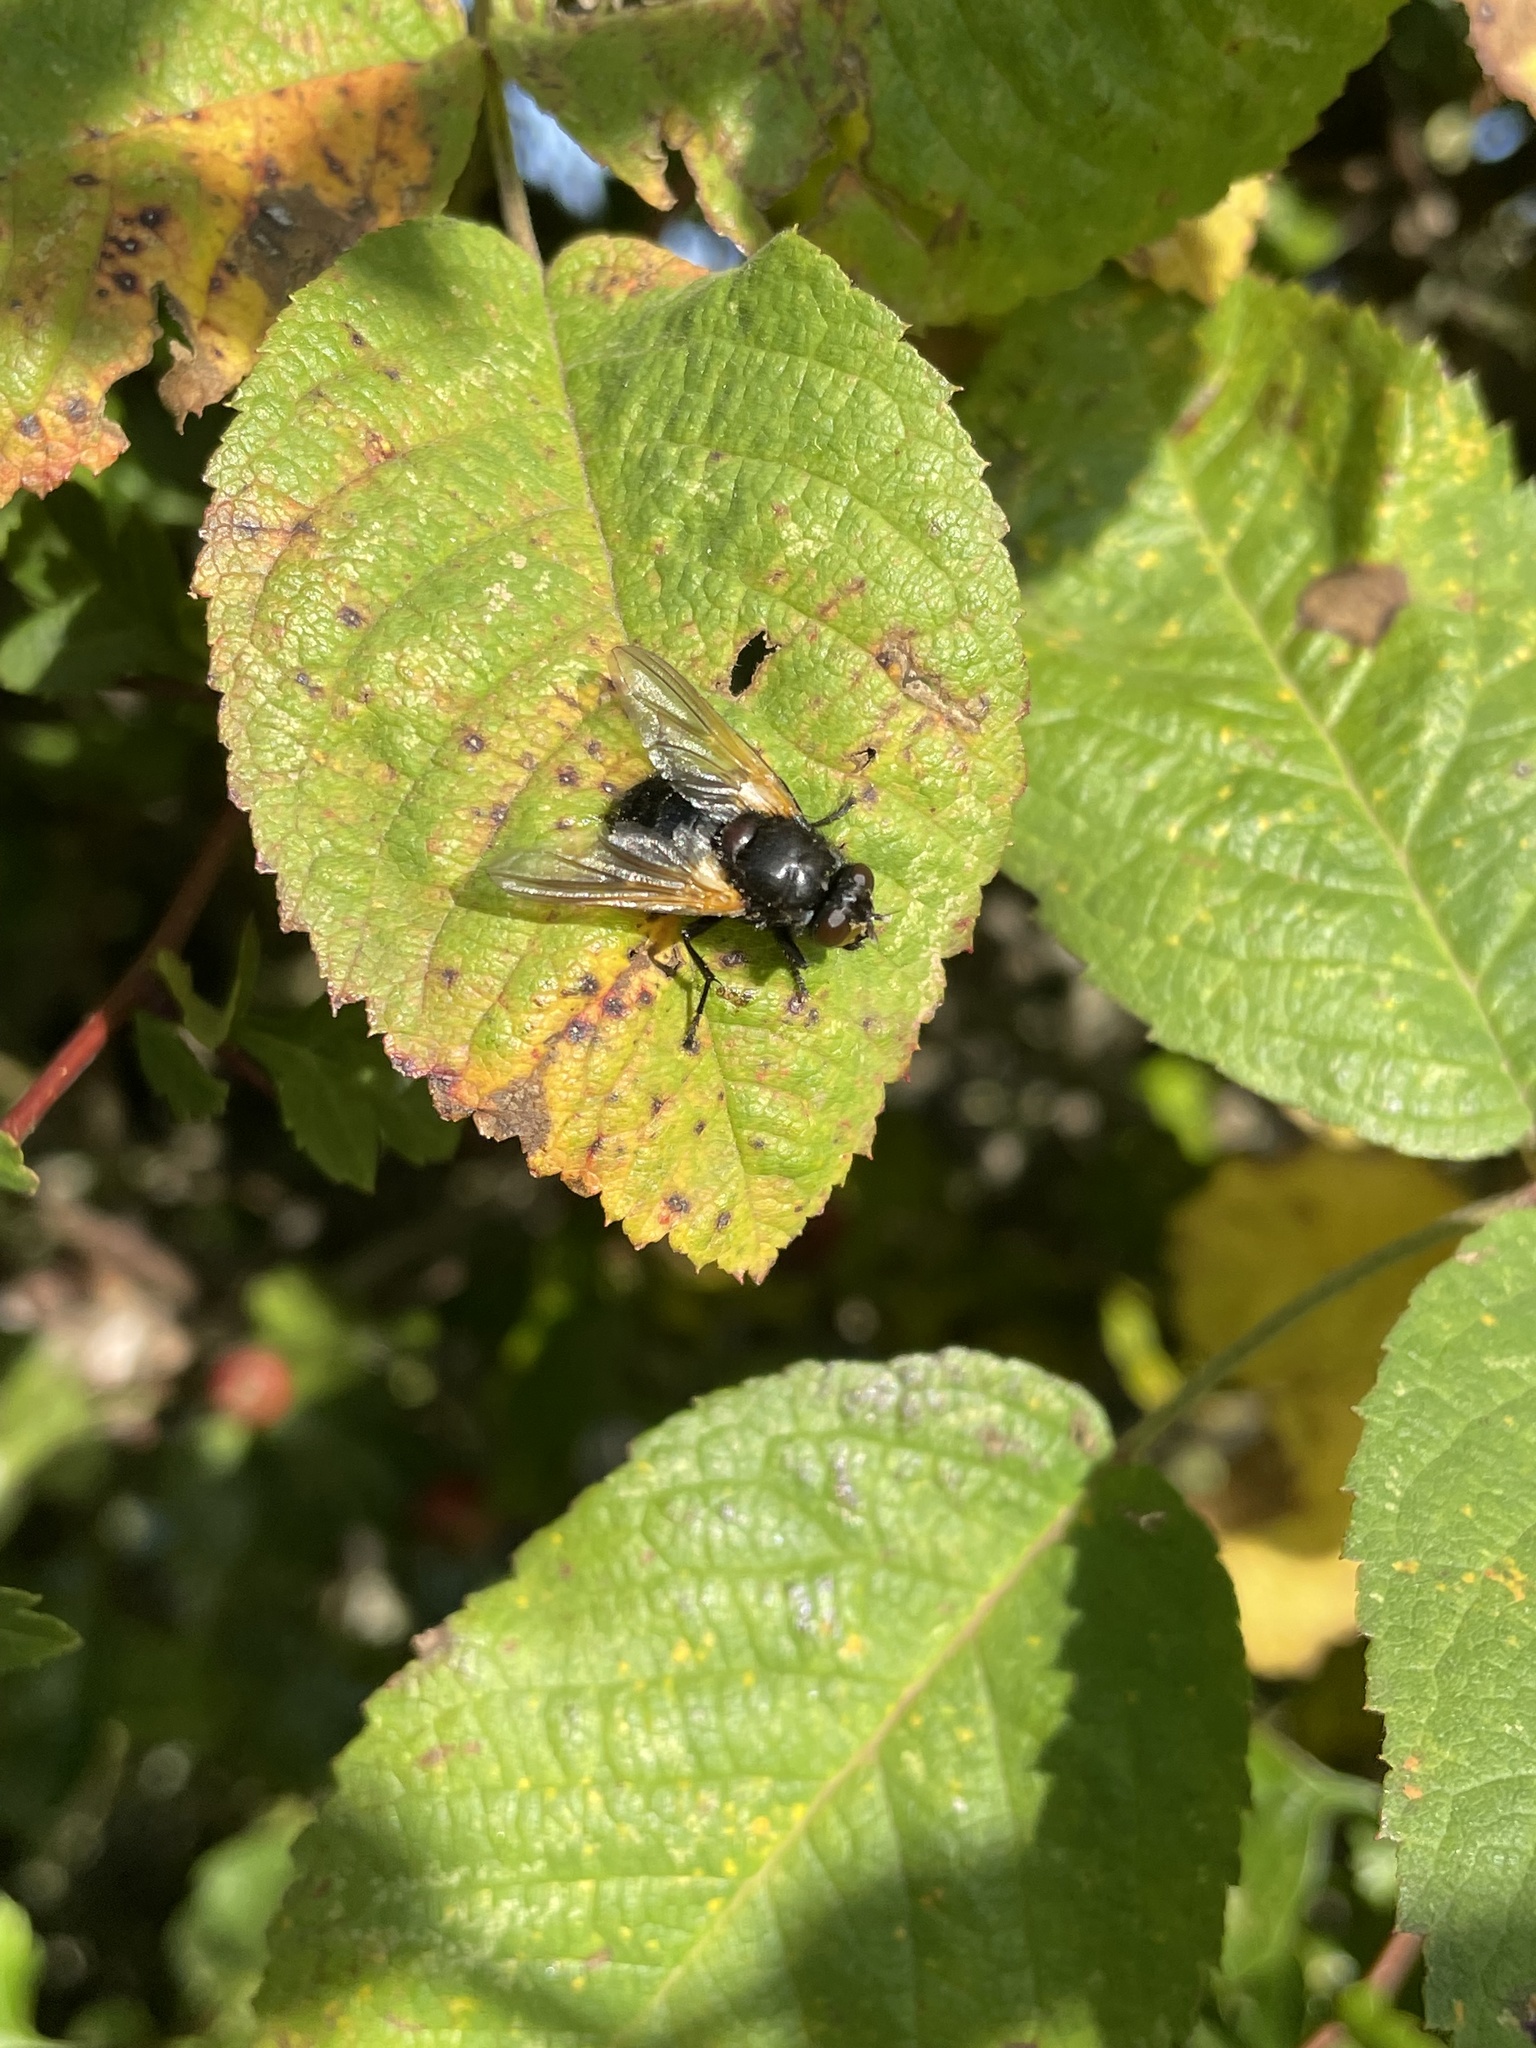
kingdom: Animalia
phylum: Arthropoda
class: Insecta
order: Diptera
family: Muscidae
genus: Mesembrina
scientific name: Mesembrina meridiana
